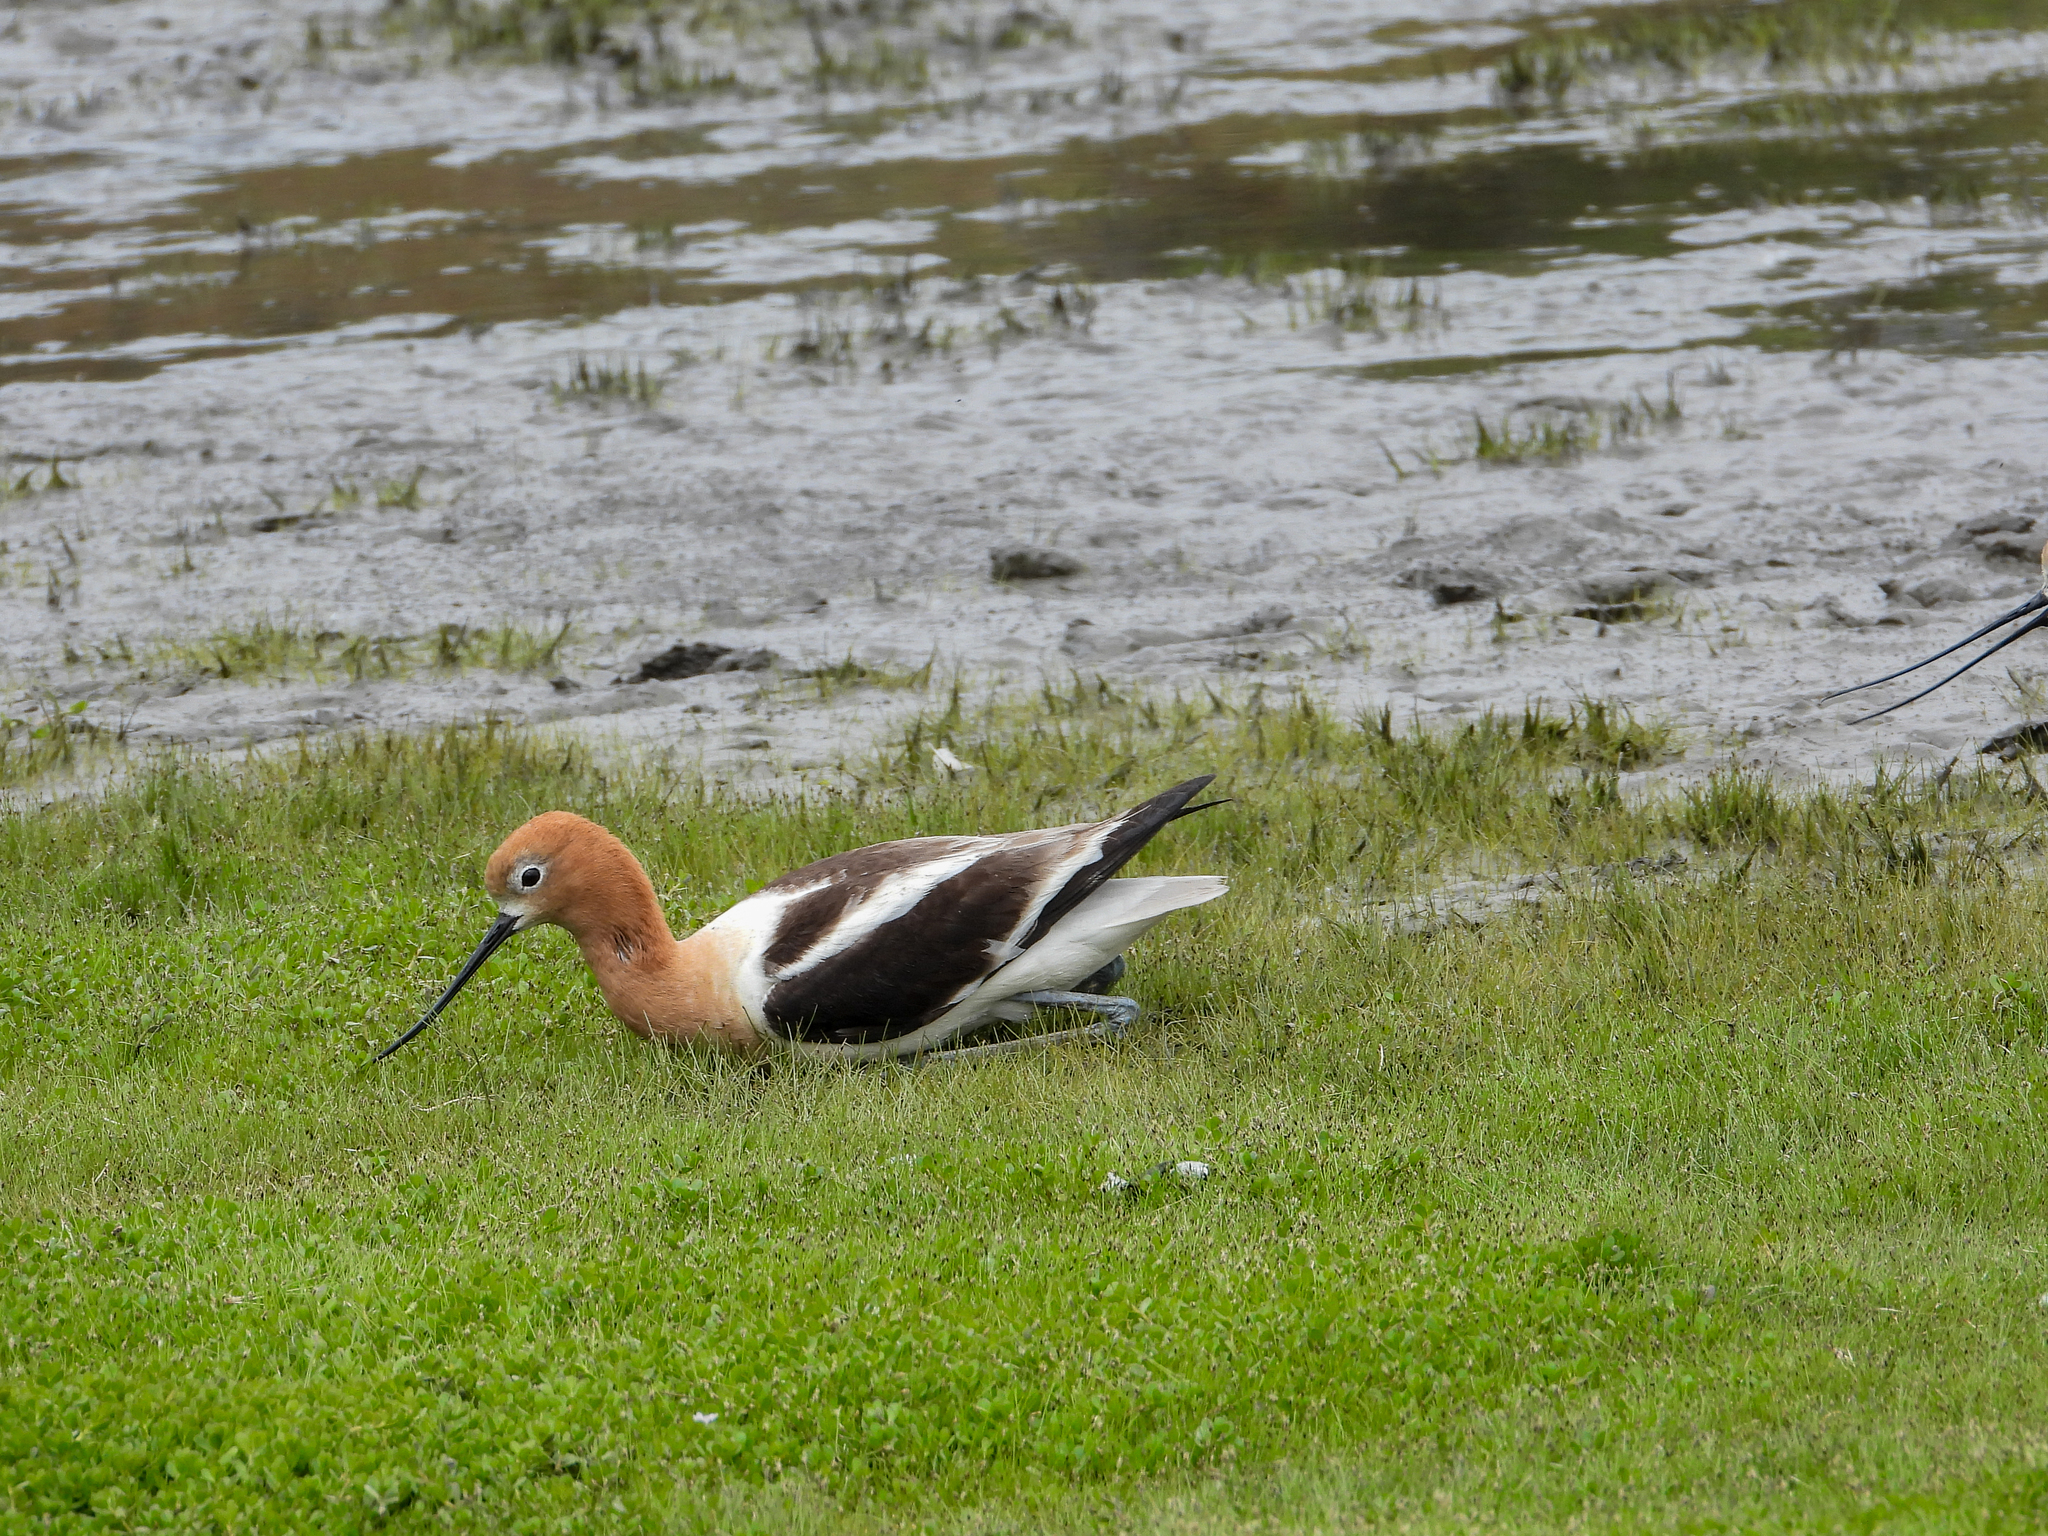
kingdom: Animalia
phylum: Chordata
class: Aves
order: Charadriiformes
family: Recurvirostridae
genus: Recurvirostra
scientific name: Recurvirostra americana
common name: American avocet
